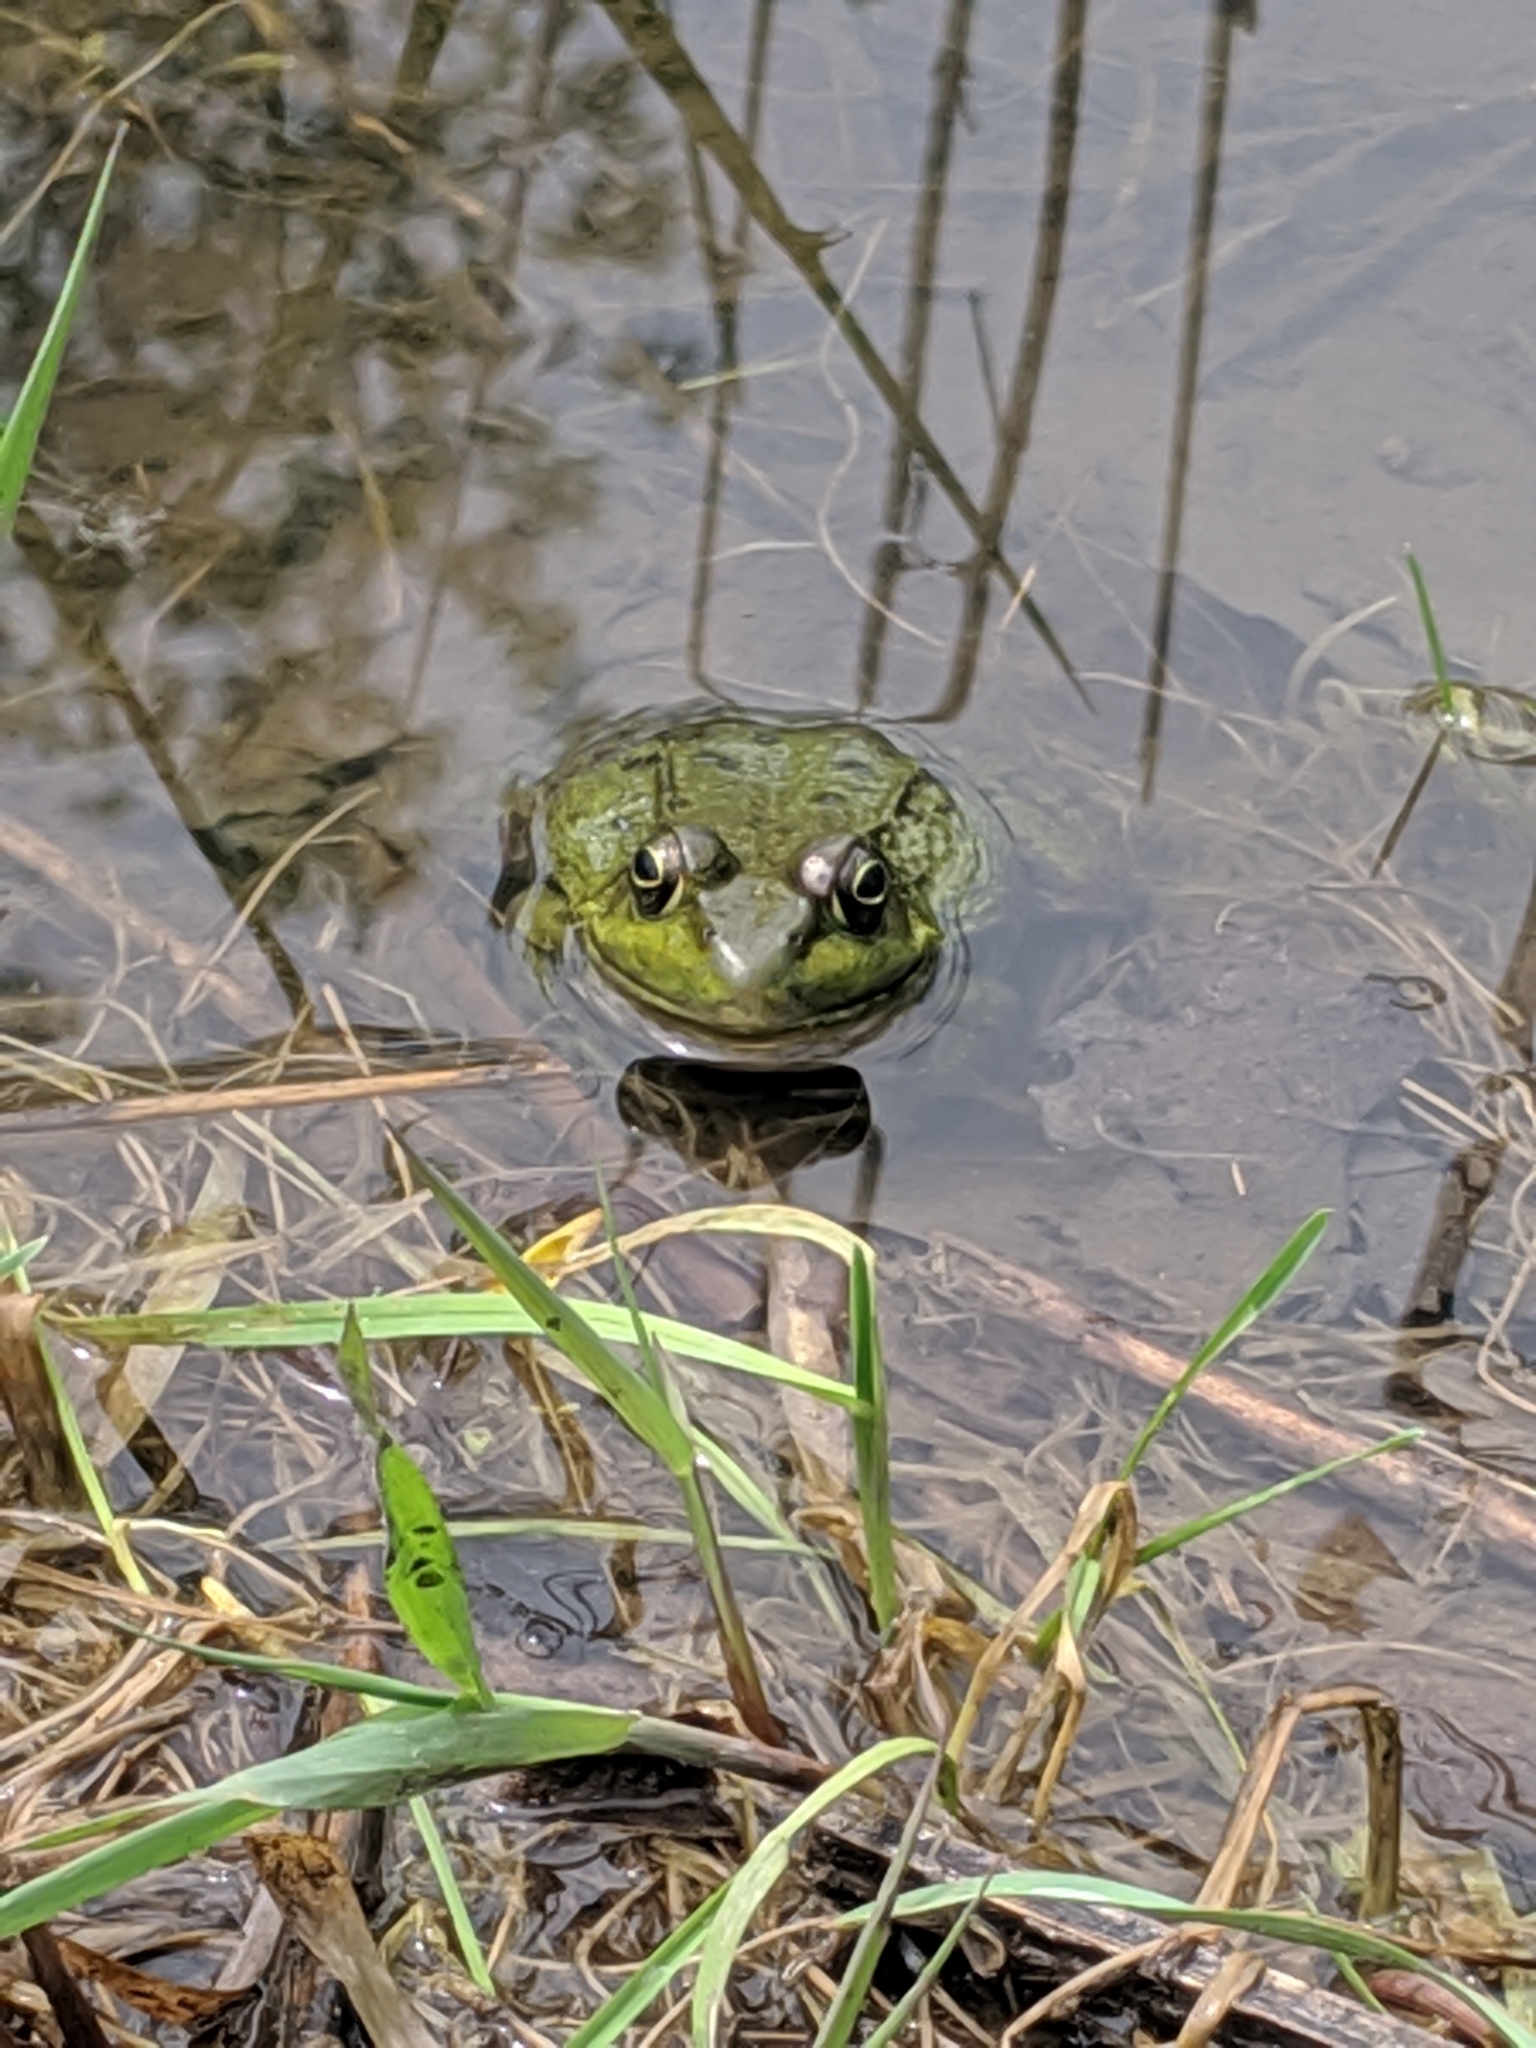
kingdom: Animalia
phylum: Chordata
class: Amphibia
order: Anura
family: Ranidae
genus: Lithobates
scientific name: Lithobates clamitans
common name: Green frog
